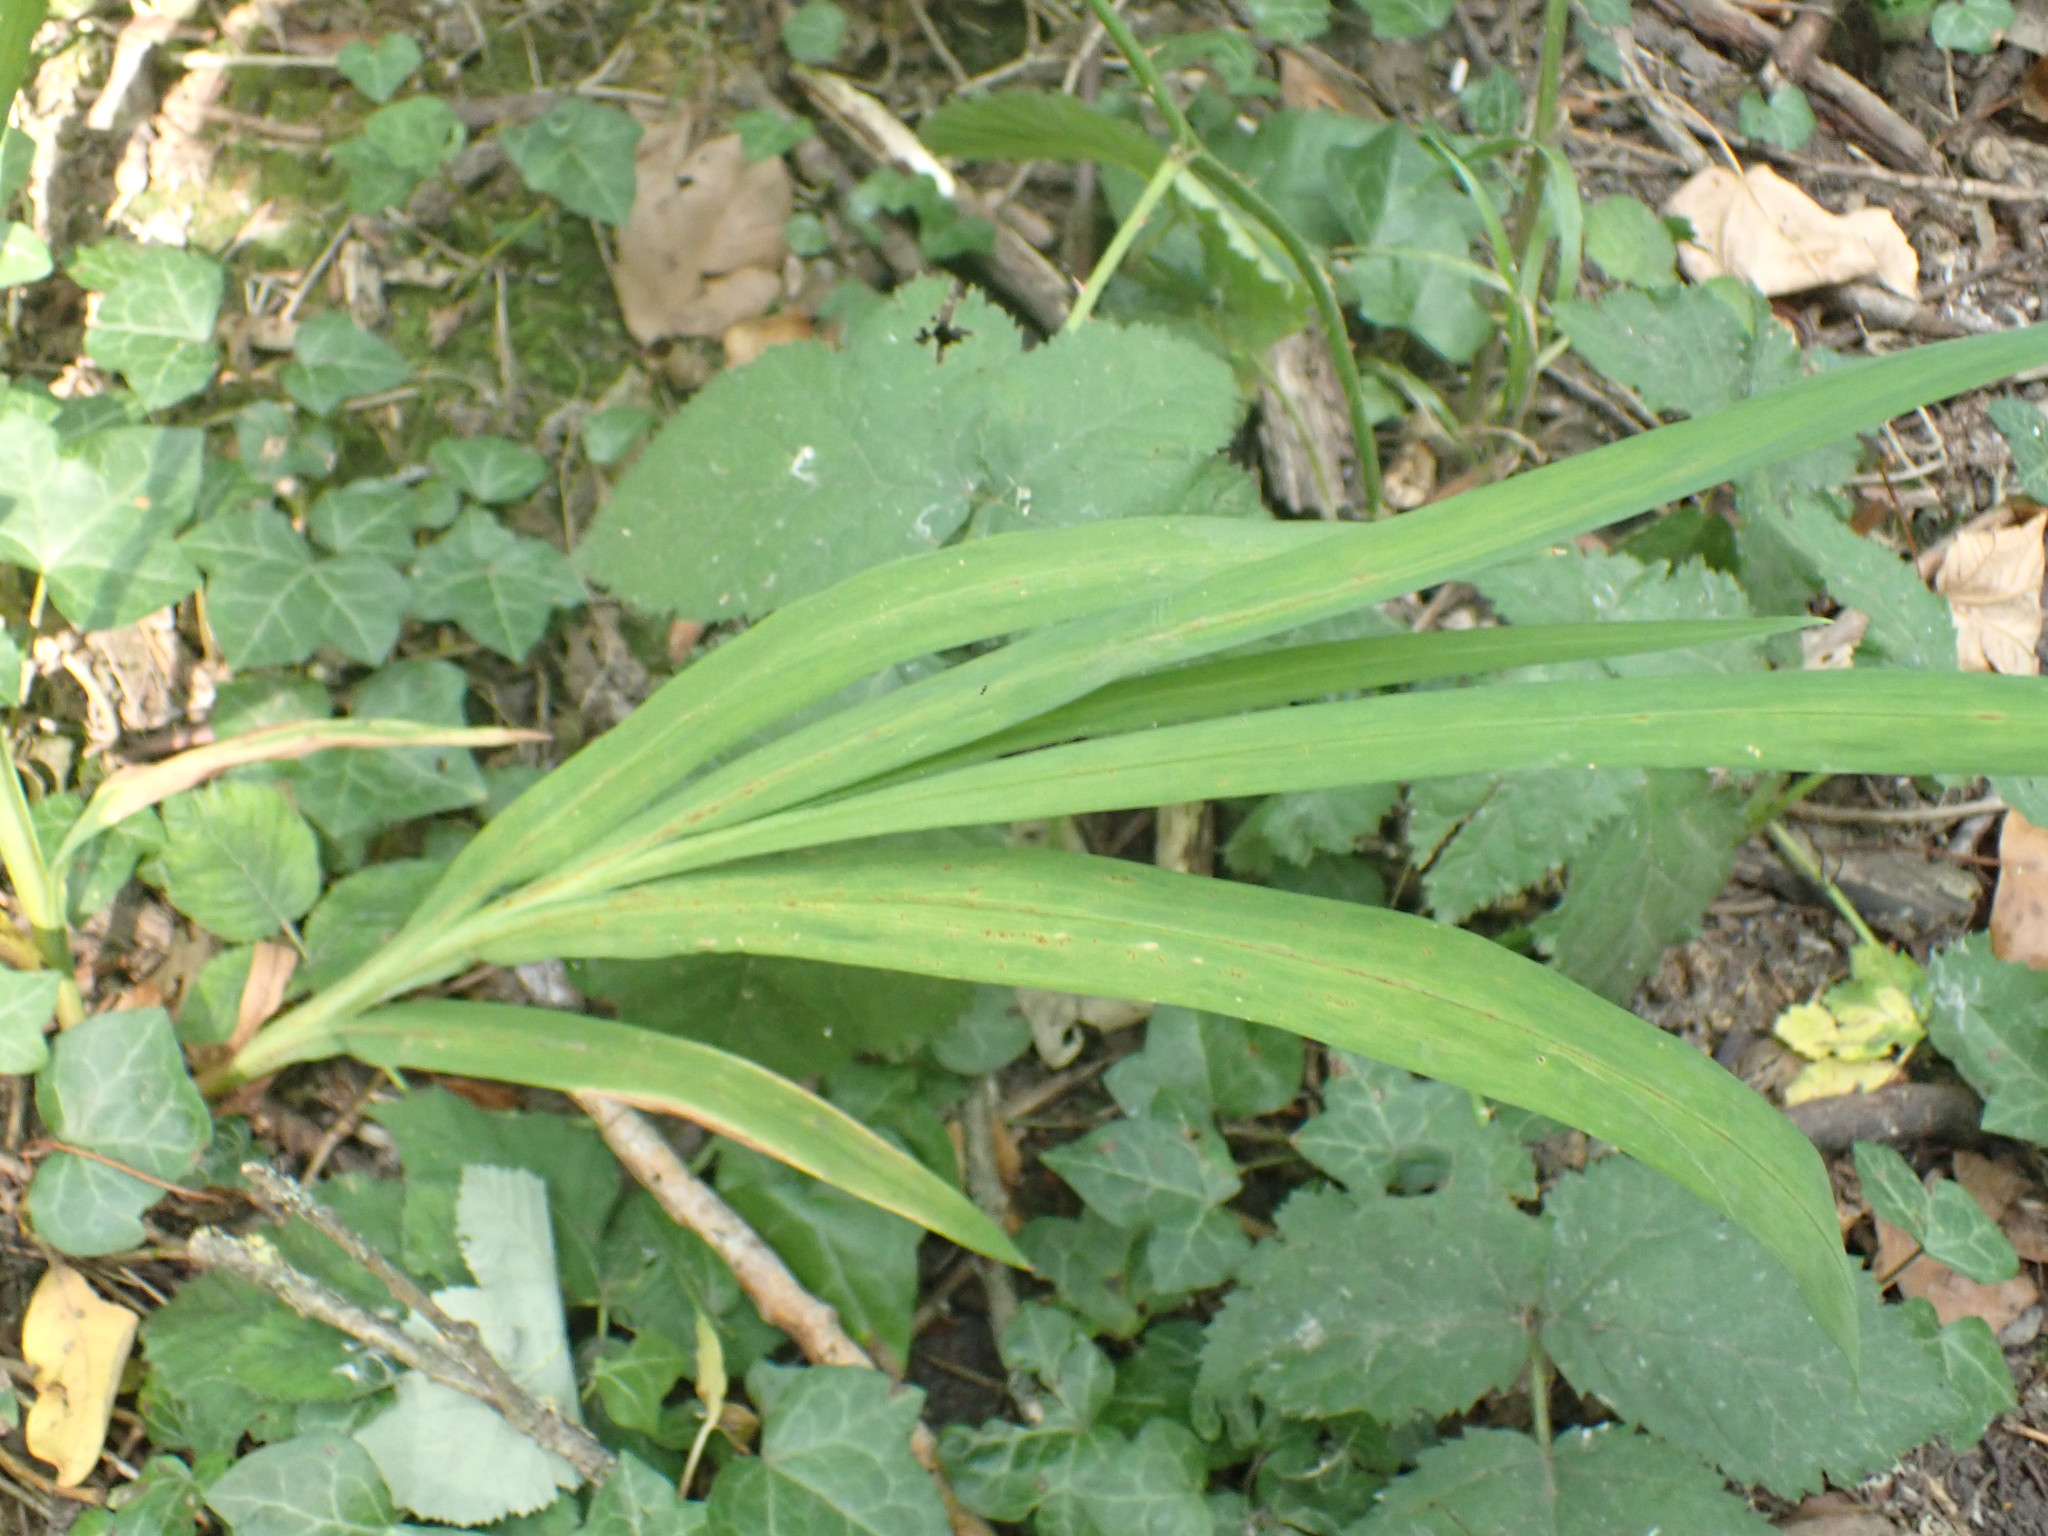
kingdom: Plantae
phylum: Tracheophyta
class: Liliopsida
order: Asparagales
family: Iridaceae
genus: Crocosmia
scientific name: Crocosmia crocosmiiflora
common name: Montbretia
